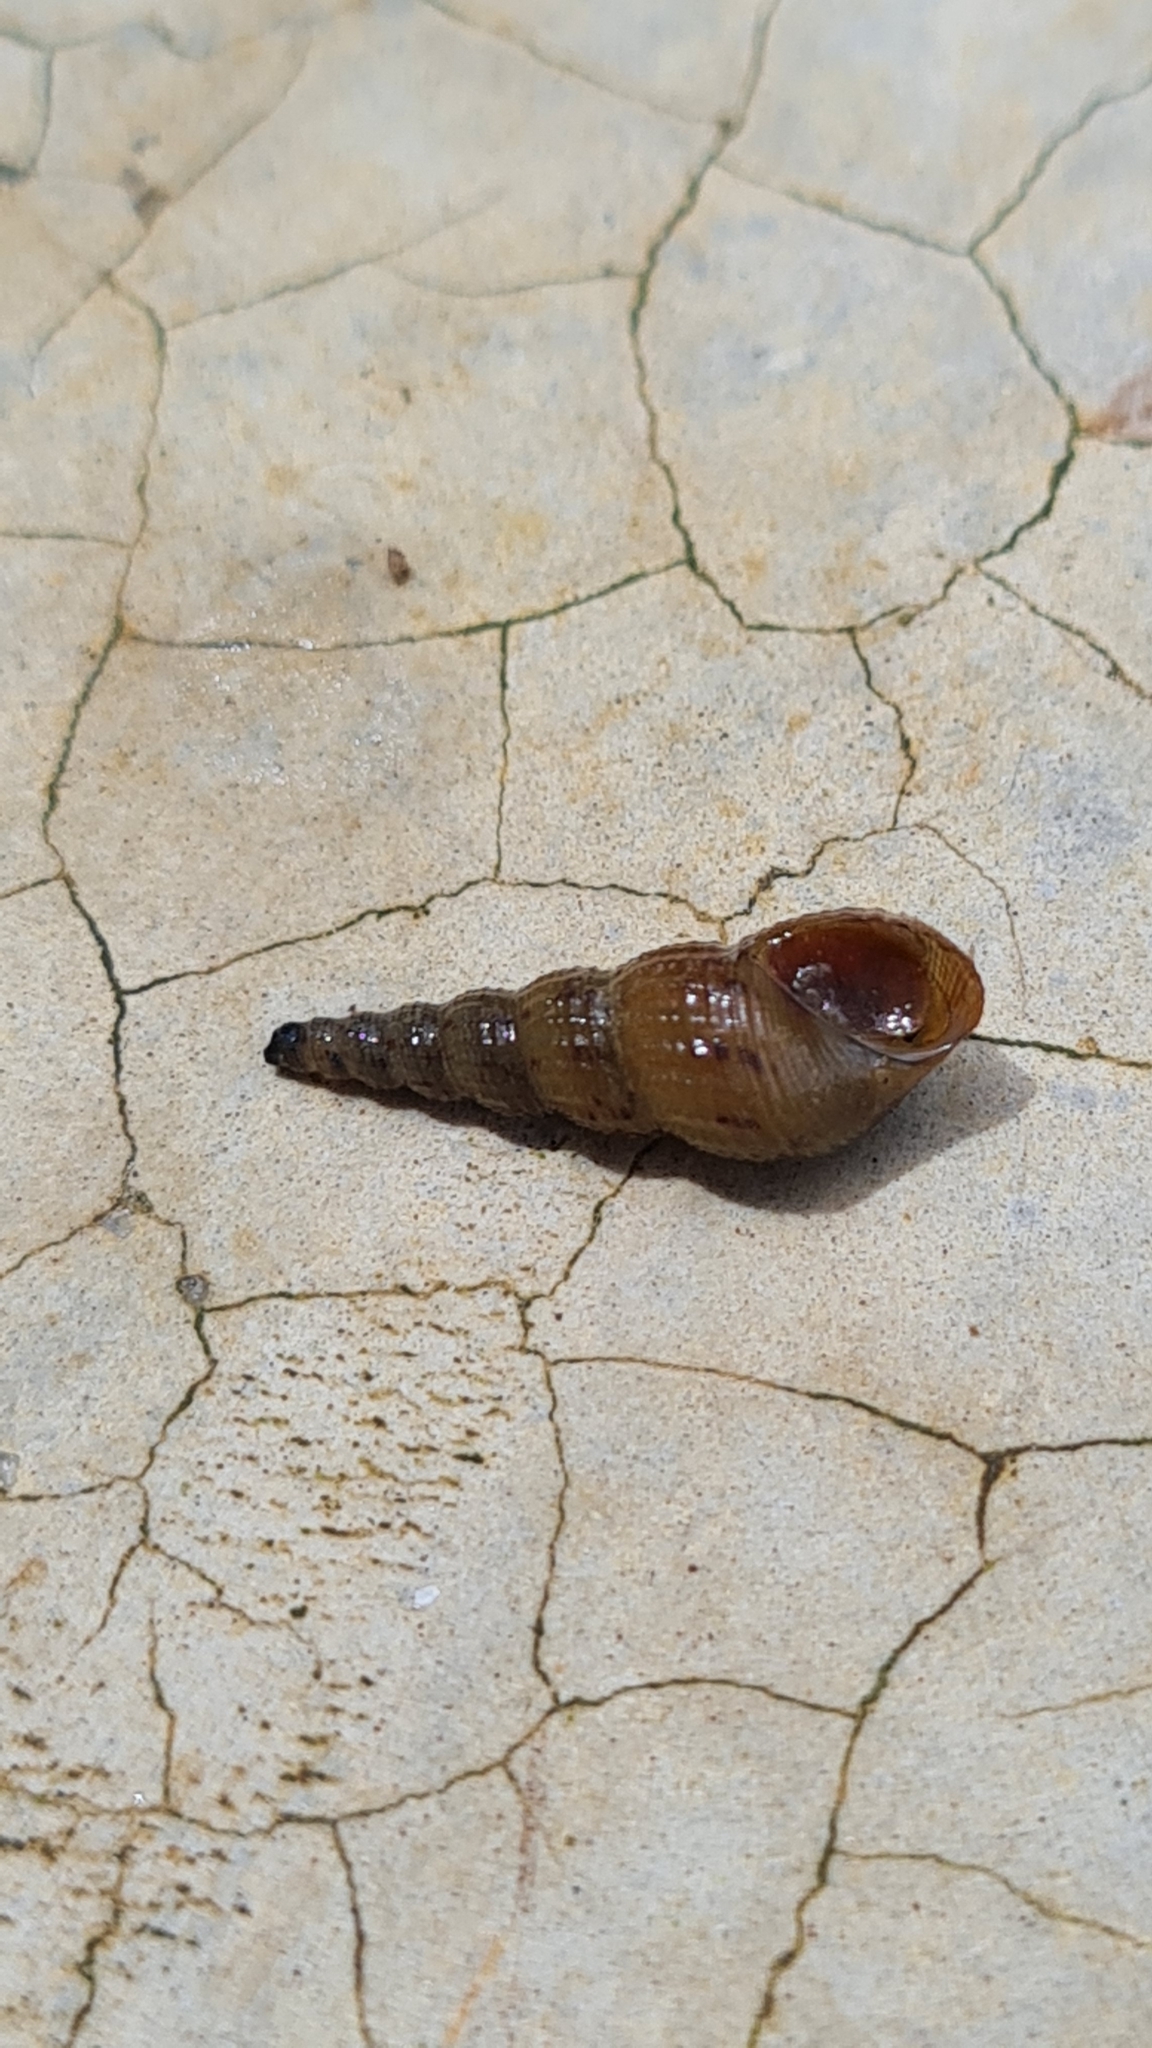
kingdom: Animalia
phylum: Mollusca
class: Gastropoda
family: Thiaridae
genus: Melanoides
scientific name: Melanoides tuberculata
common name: Red-rim melania
